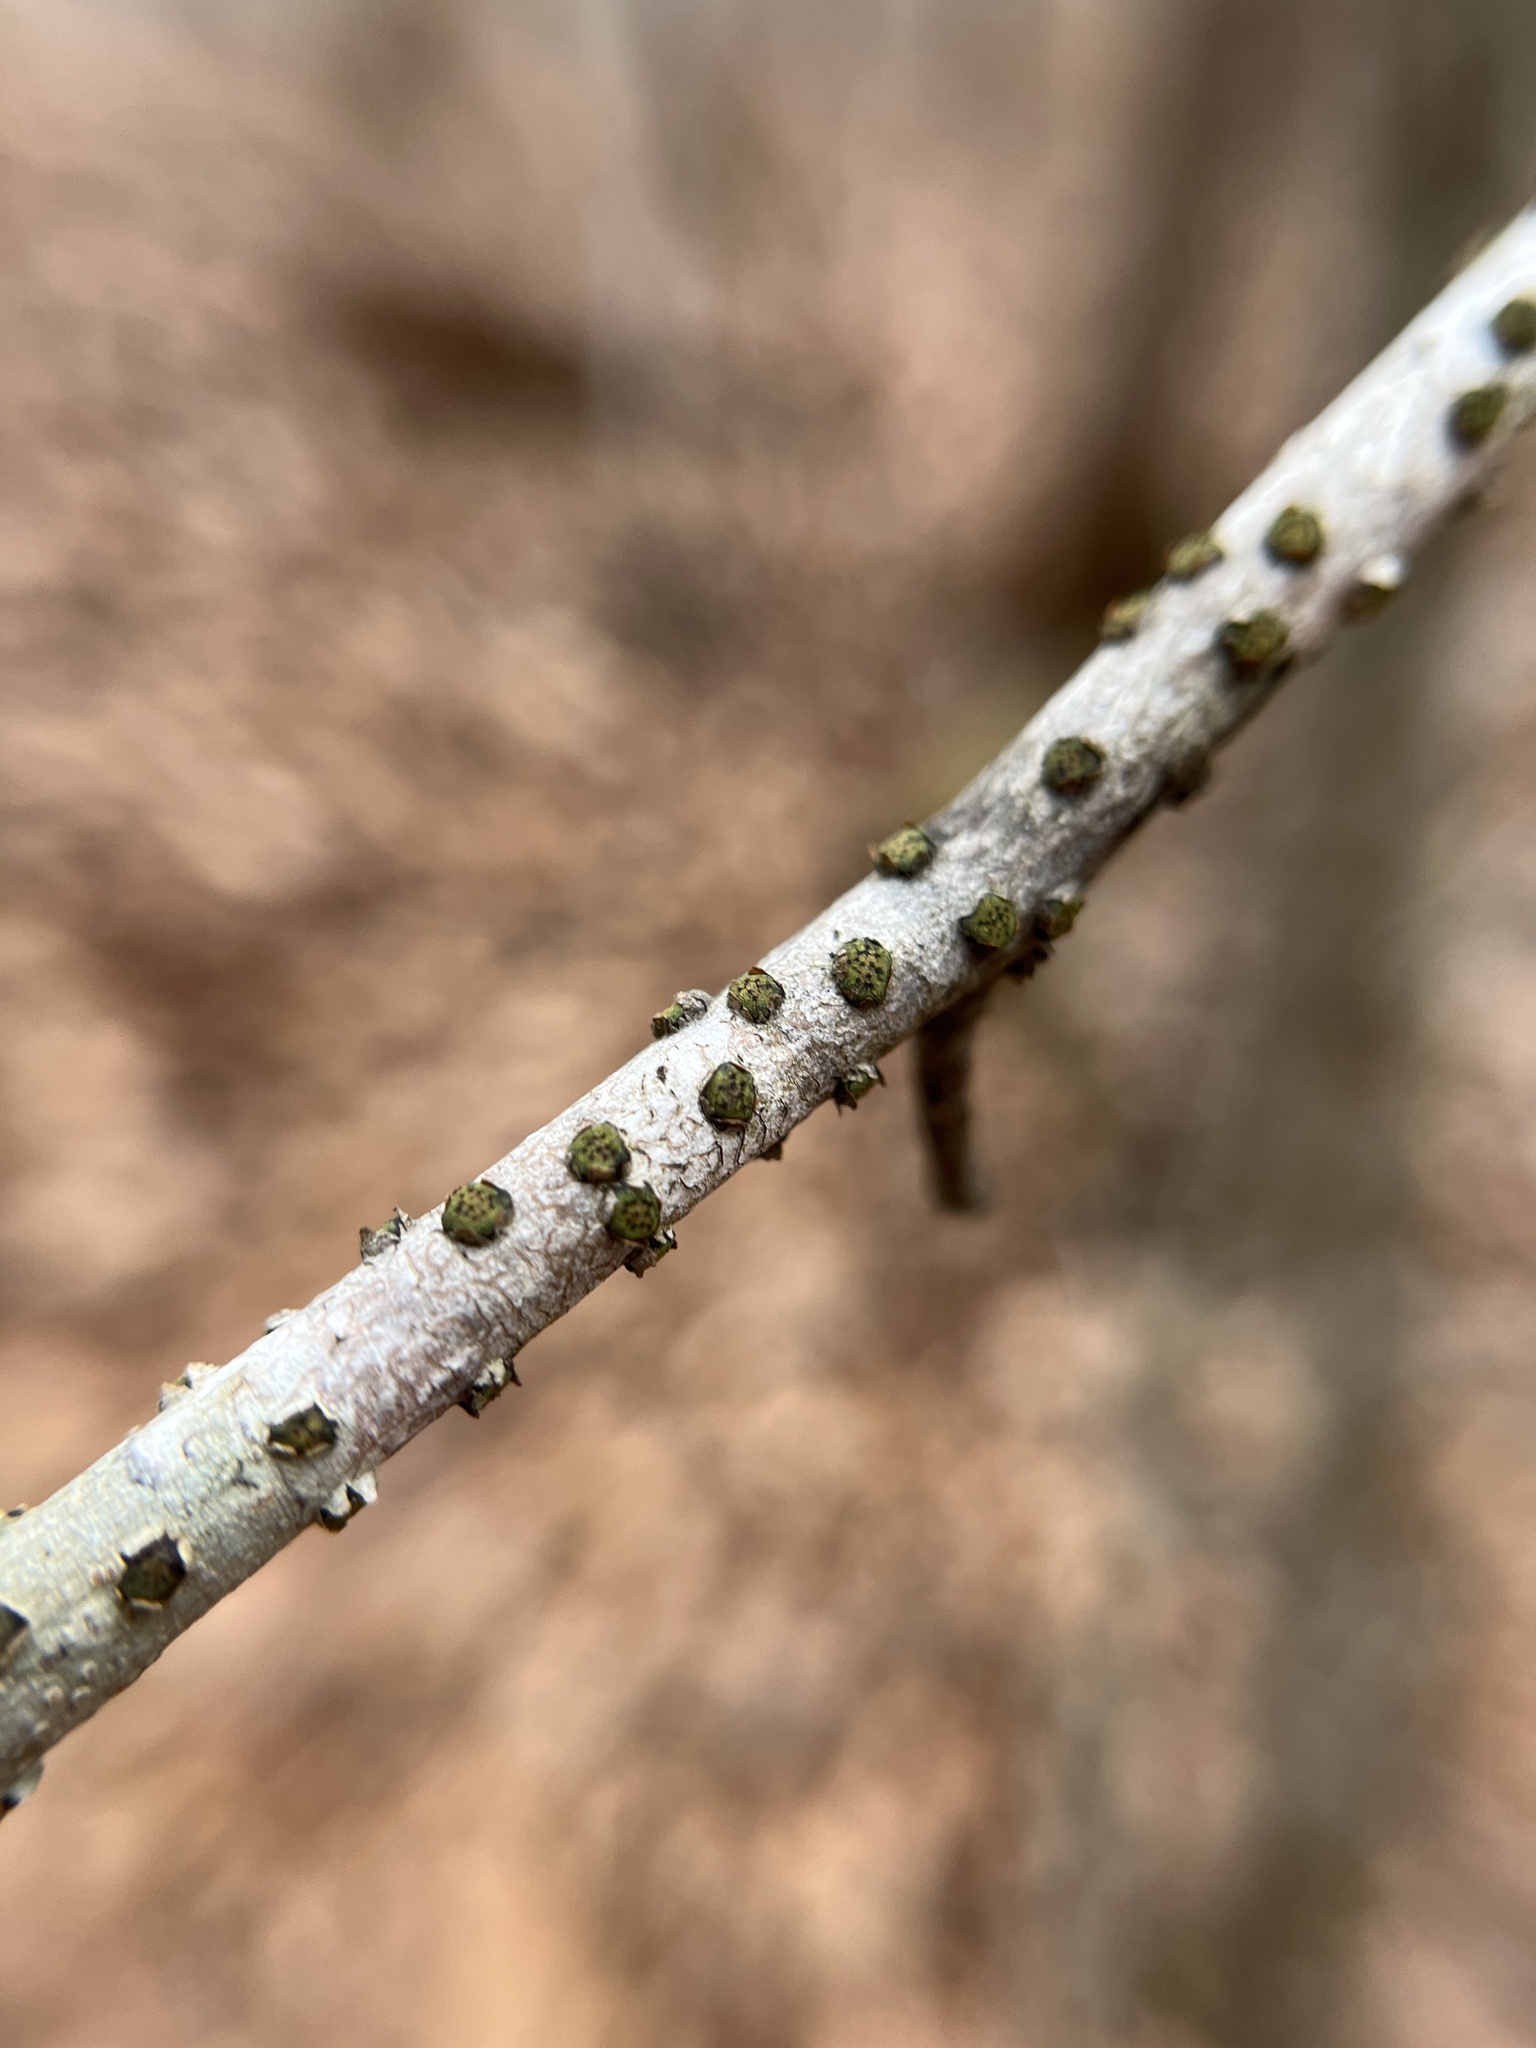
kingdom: Fungi
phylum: Ascomycota
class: Sordariomycetes
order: Xylariales
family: Diatrypaceae
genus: Diatrype
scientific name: Diatrype virescens
